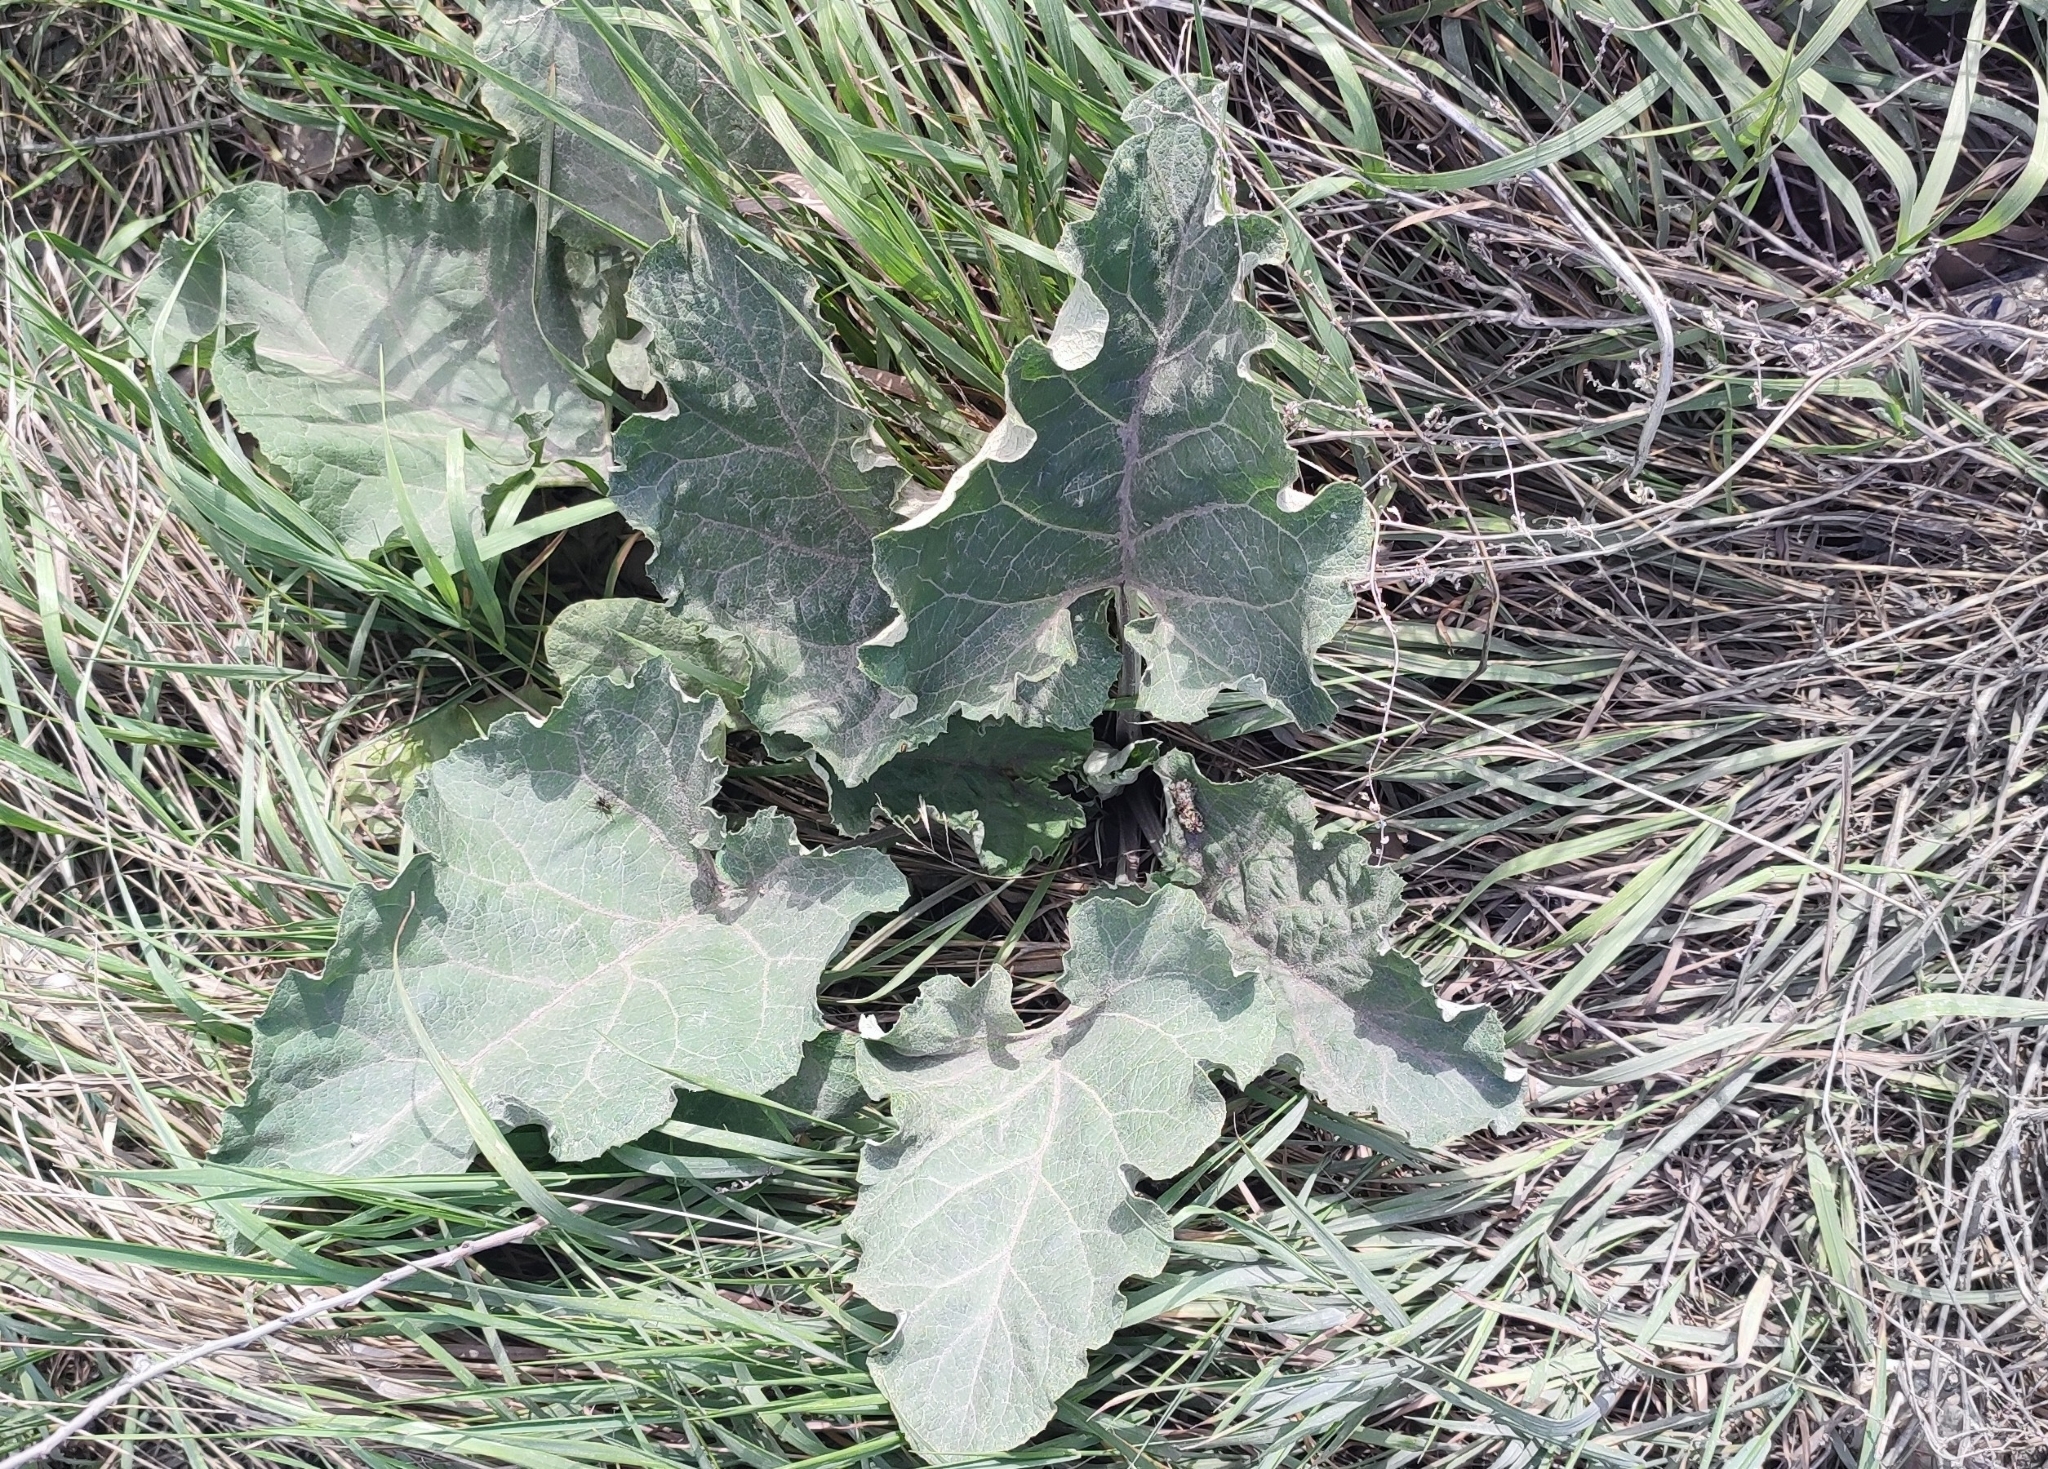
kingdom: Plantae
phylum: Tracheophyta
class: Magnoliopsida
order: Asterales
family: Asteraceae
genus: Arctium
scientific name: Arctium tomentosum
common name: Woolly burdock
